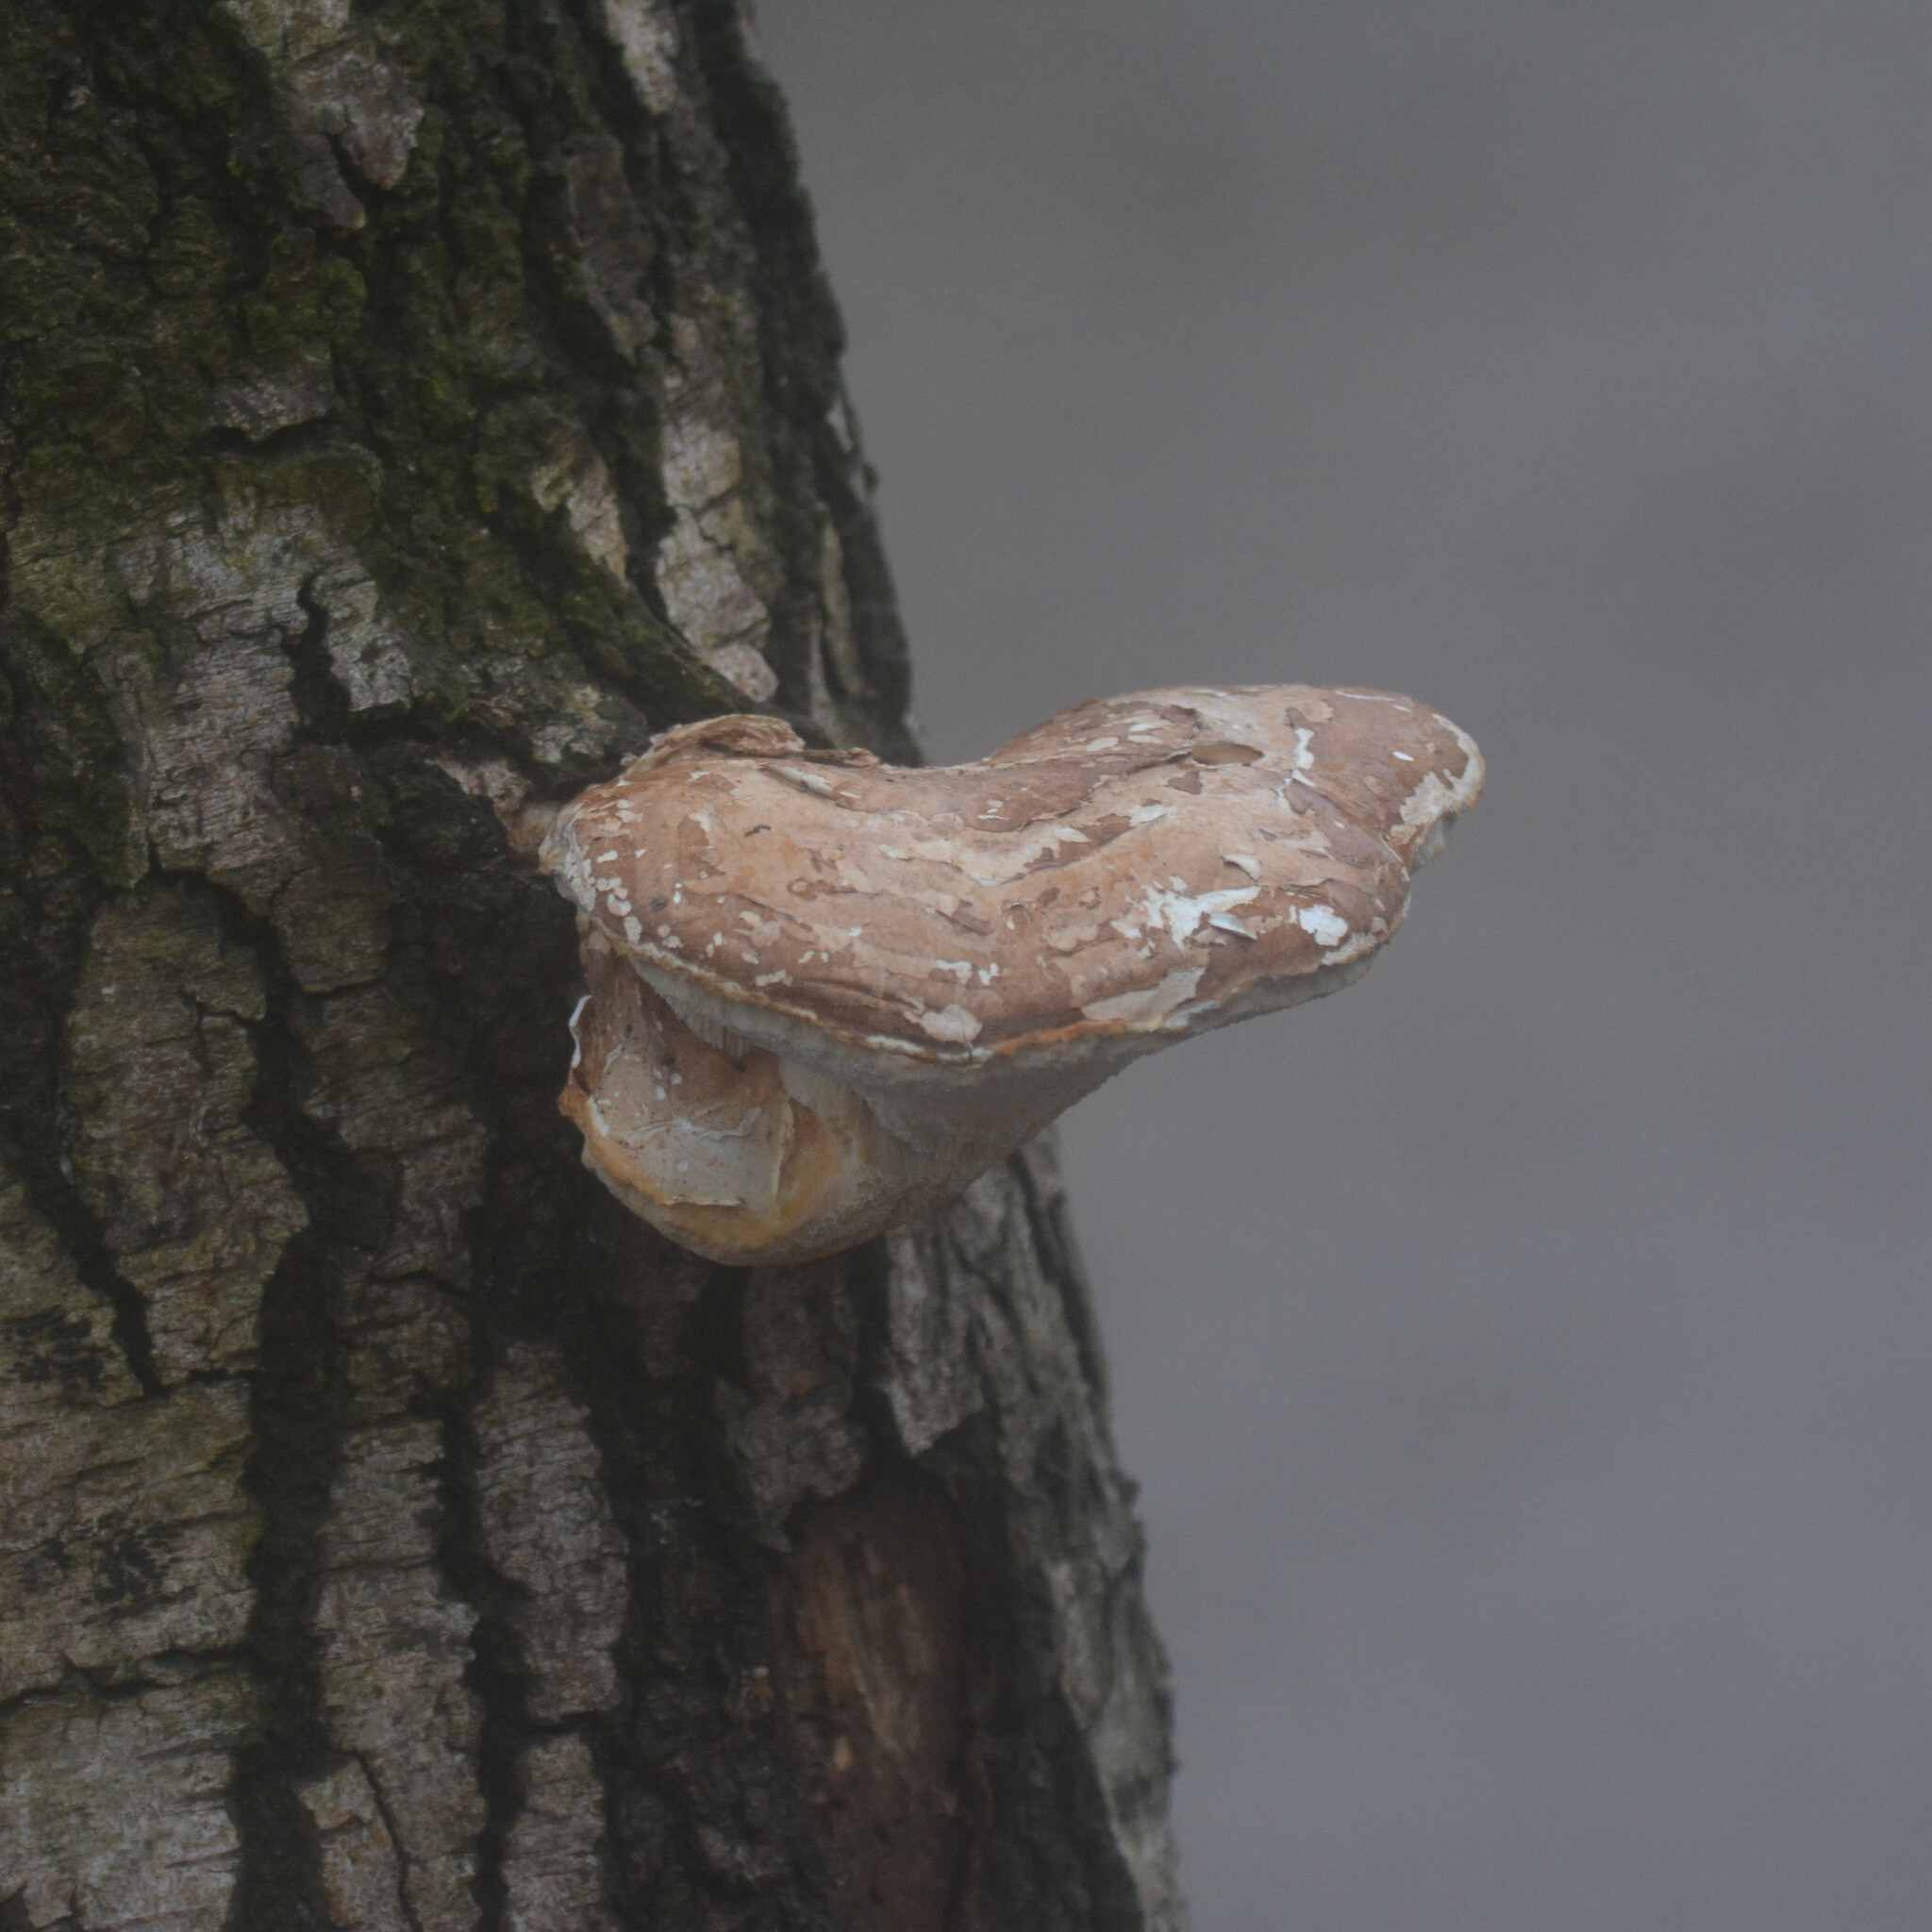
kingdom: Fungi
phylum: Basidiomycota
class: Agaricomycetes
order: Polyporales
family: Fomitopsidaceae
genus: Fomitopsis
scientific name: Fomitopsis betulina
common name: Birch polypore
